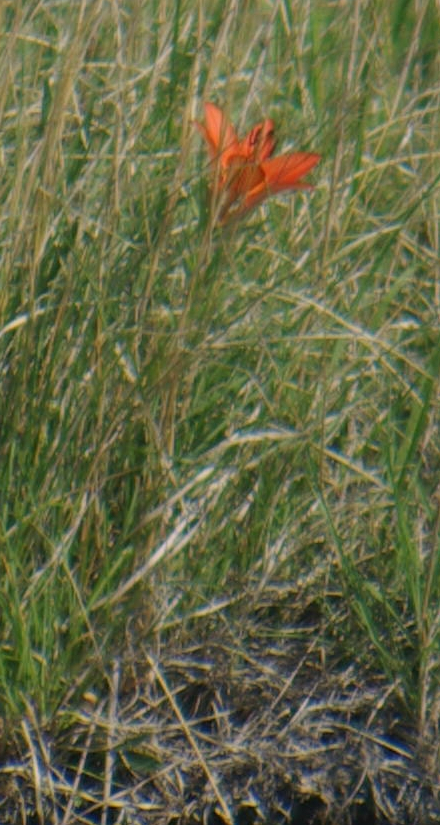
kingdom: Plantae
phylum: Tracheophyta
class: Liliopsida
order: Liliales
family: Liliaceae
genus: Lilium
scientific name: Lilium philadelphicum
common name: Red lily
